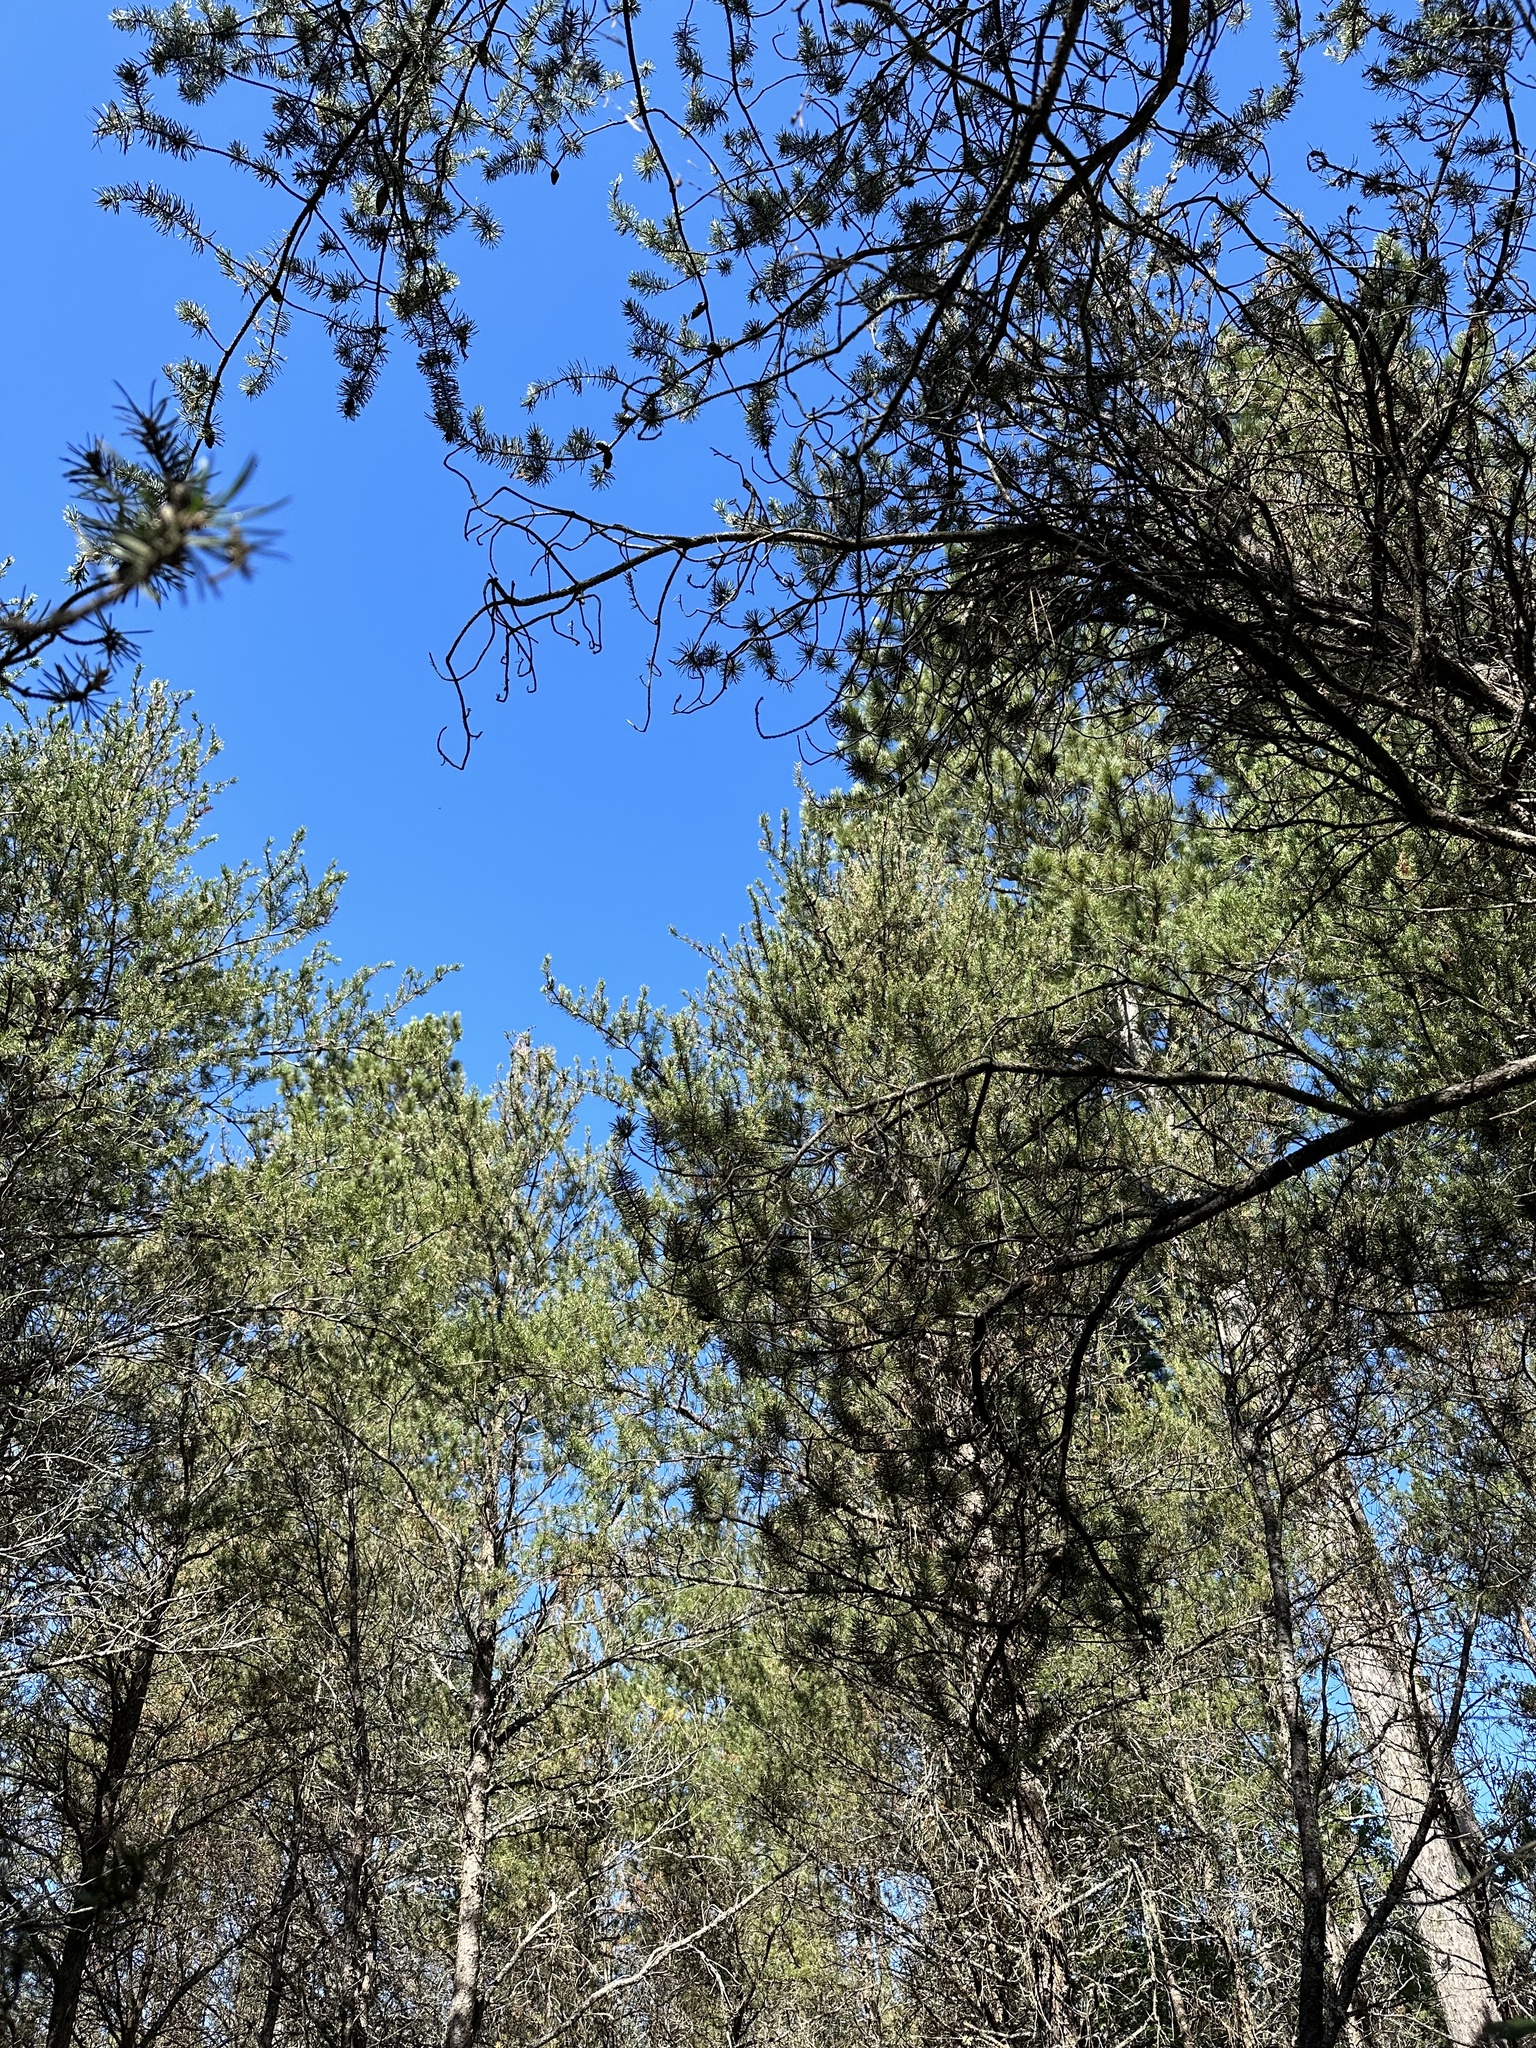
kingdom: Plantae
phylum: Tracheophyta
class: Pinopsida
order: Pinales
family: Pinaceae
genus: Pinus
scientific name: Pinus banksiana
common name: Jack pine
